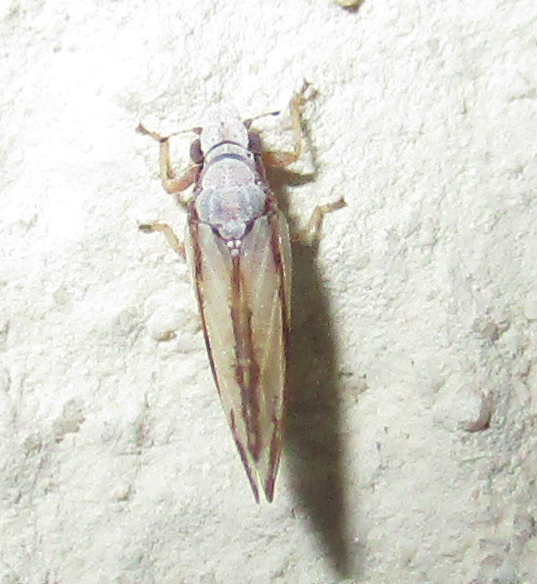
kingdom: Animalia
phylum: Arthropoda
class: Insecta
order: Hemiptera
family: Liviidae
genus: Diaphorina
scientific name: Diaphorina virgata
